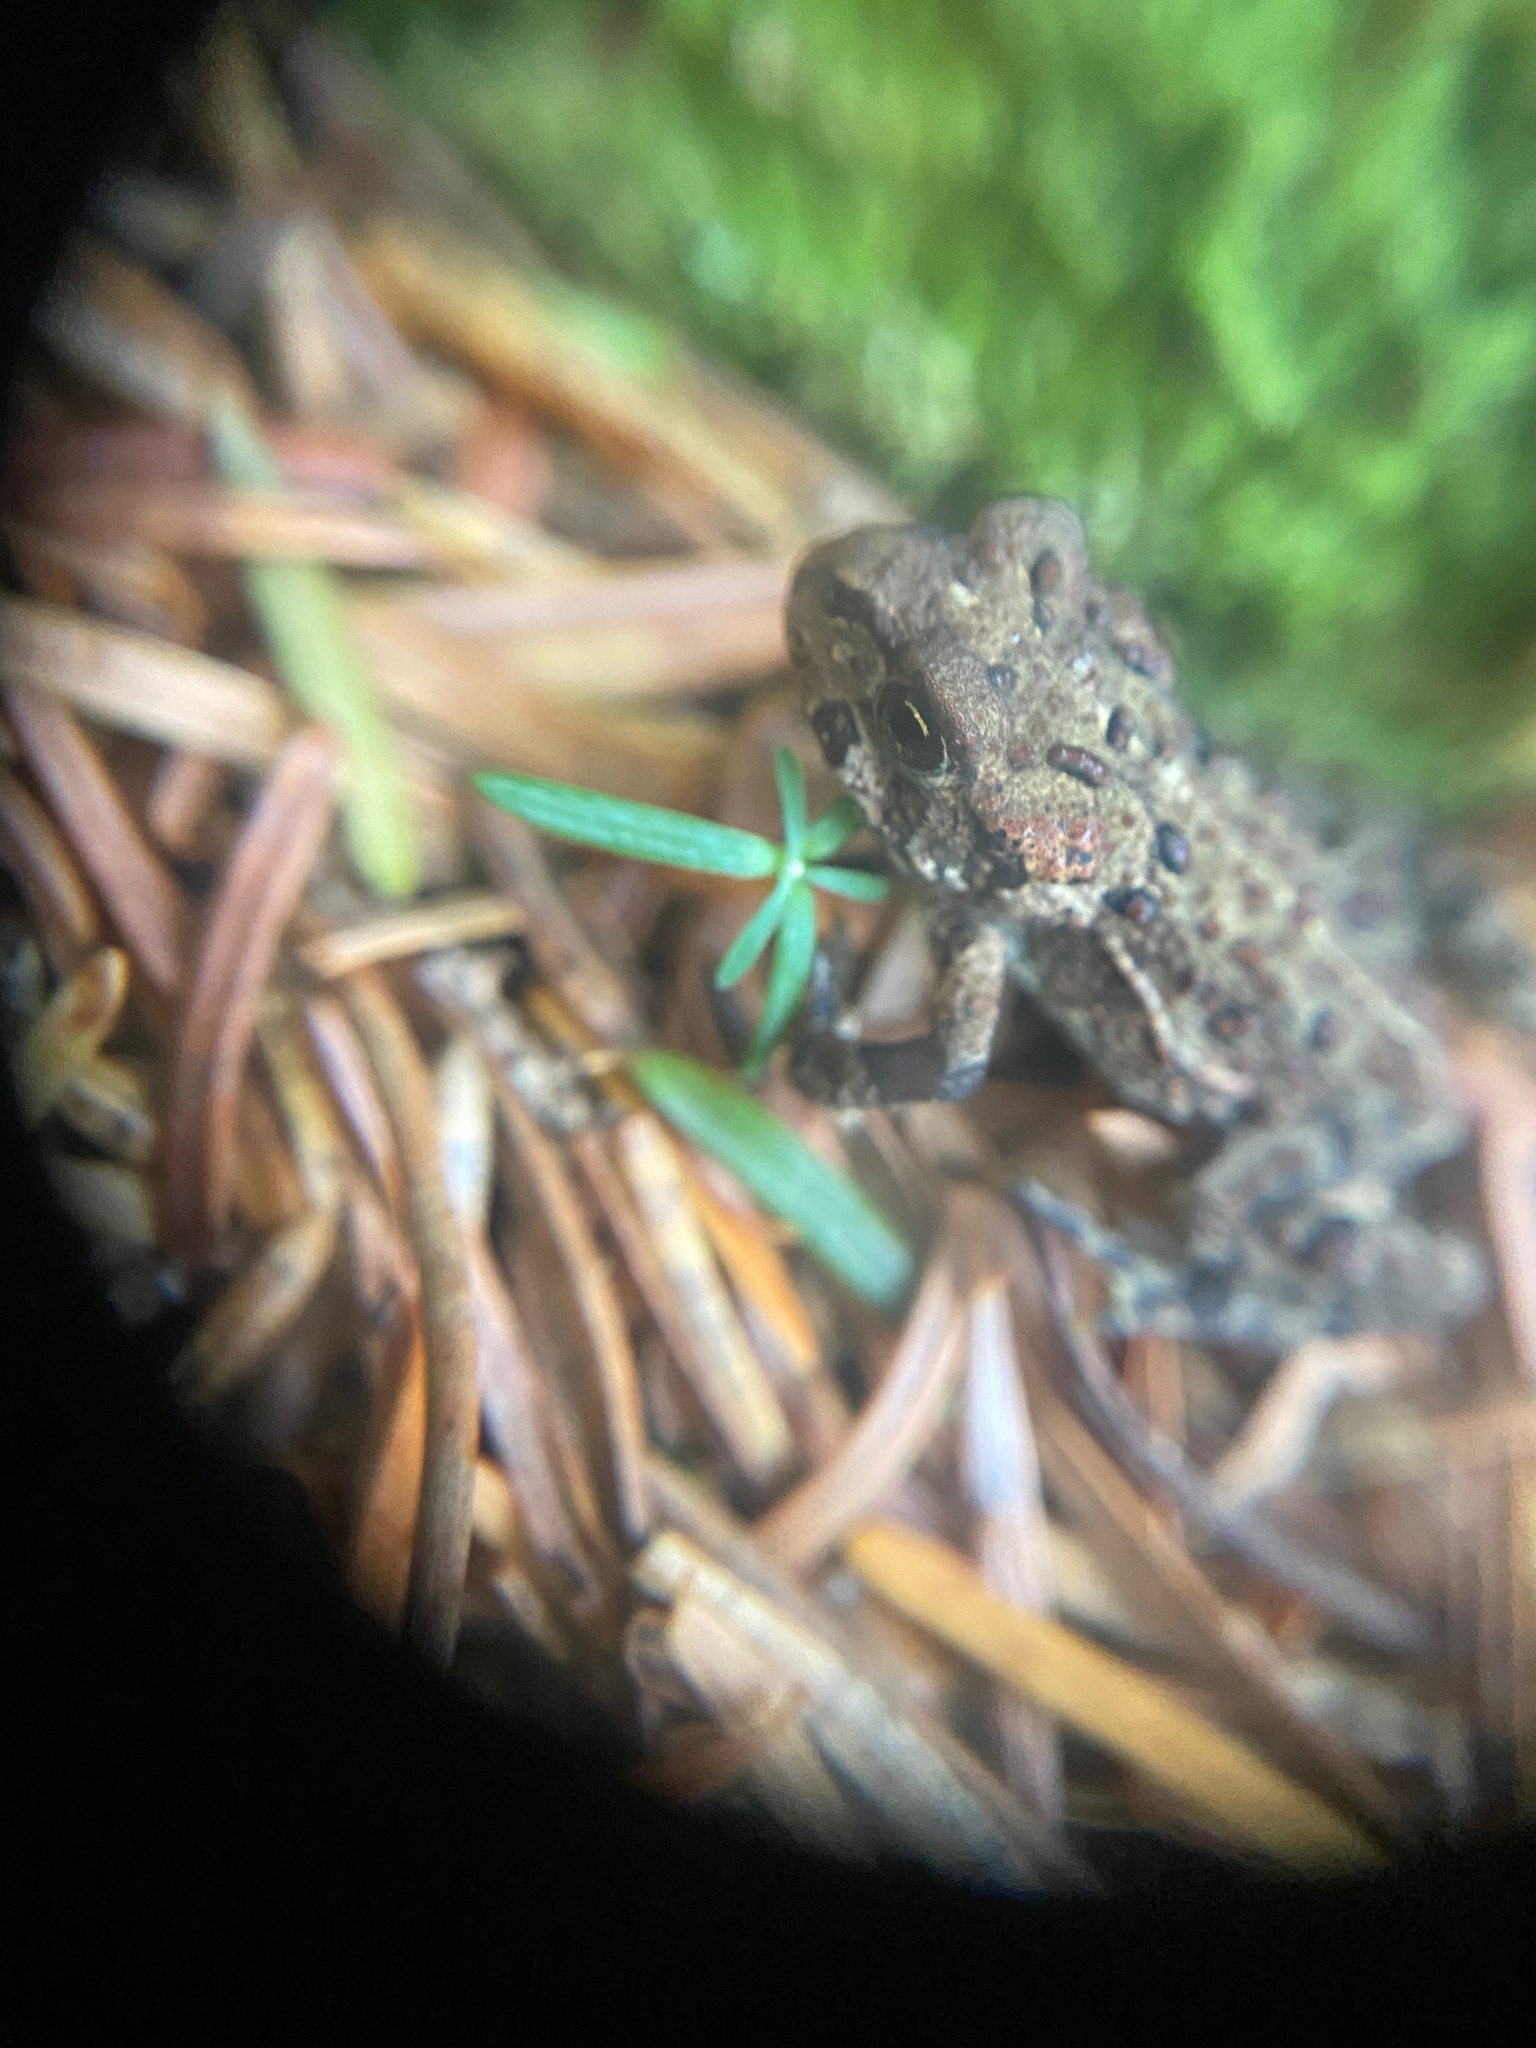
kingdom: Animalia
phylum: Chordata
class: Amphibia
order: Anura
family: Bufonidae
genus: Anaxyrus
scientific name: Anaxyrus boreas
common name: Western toad
